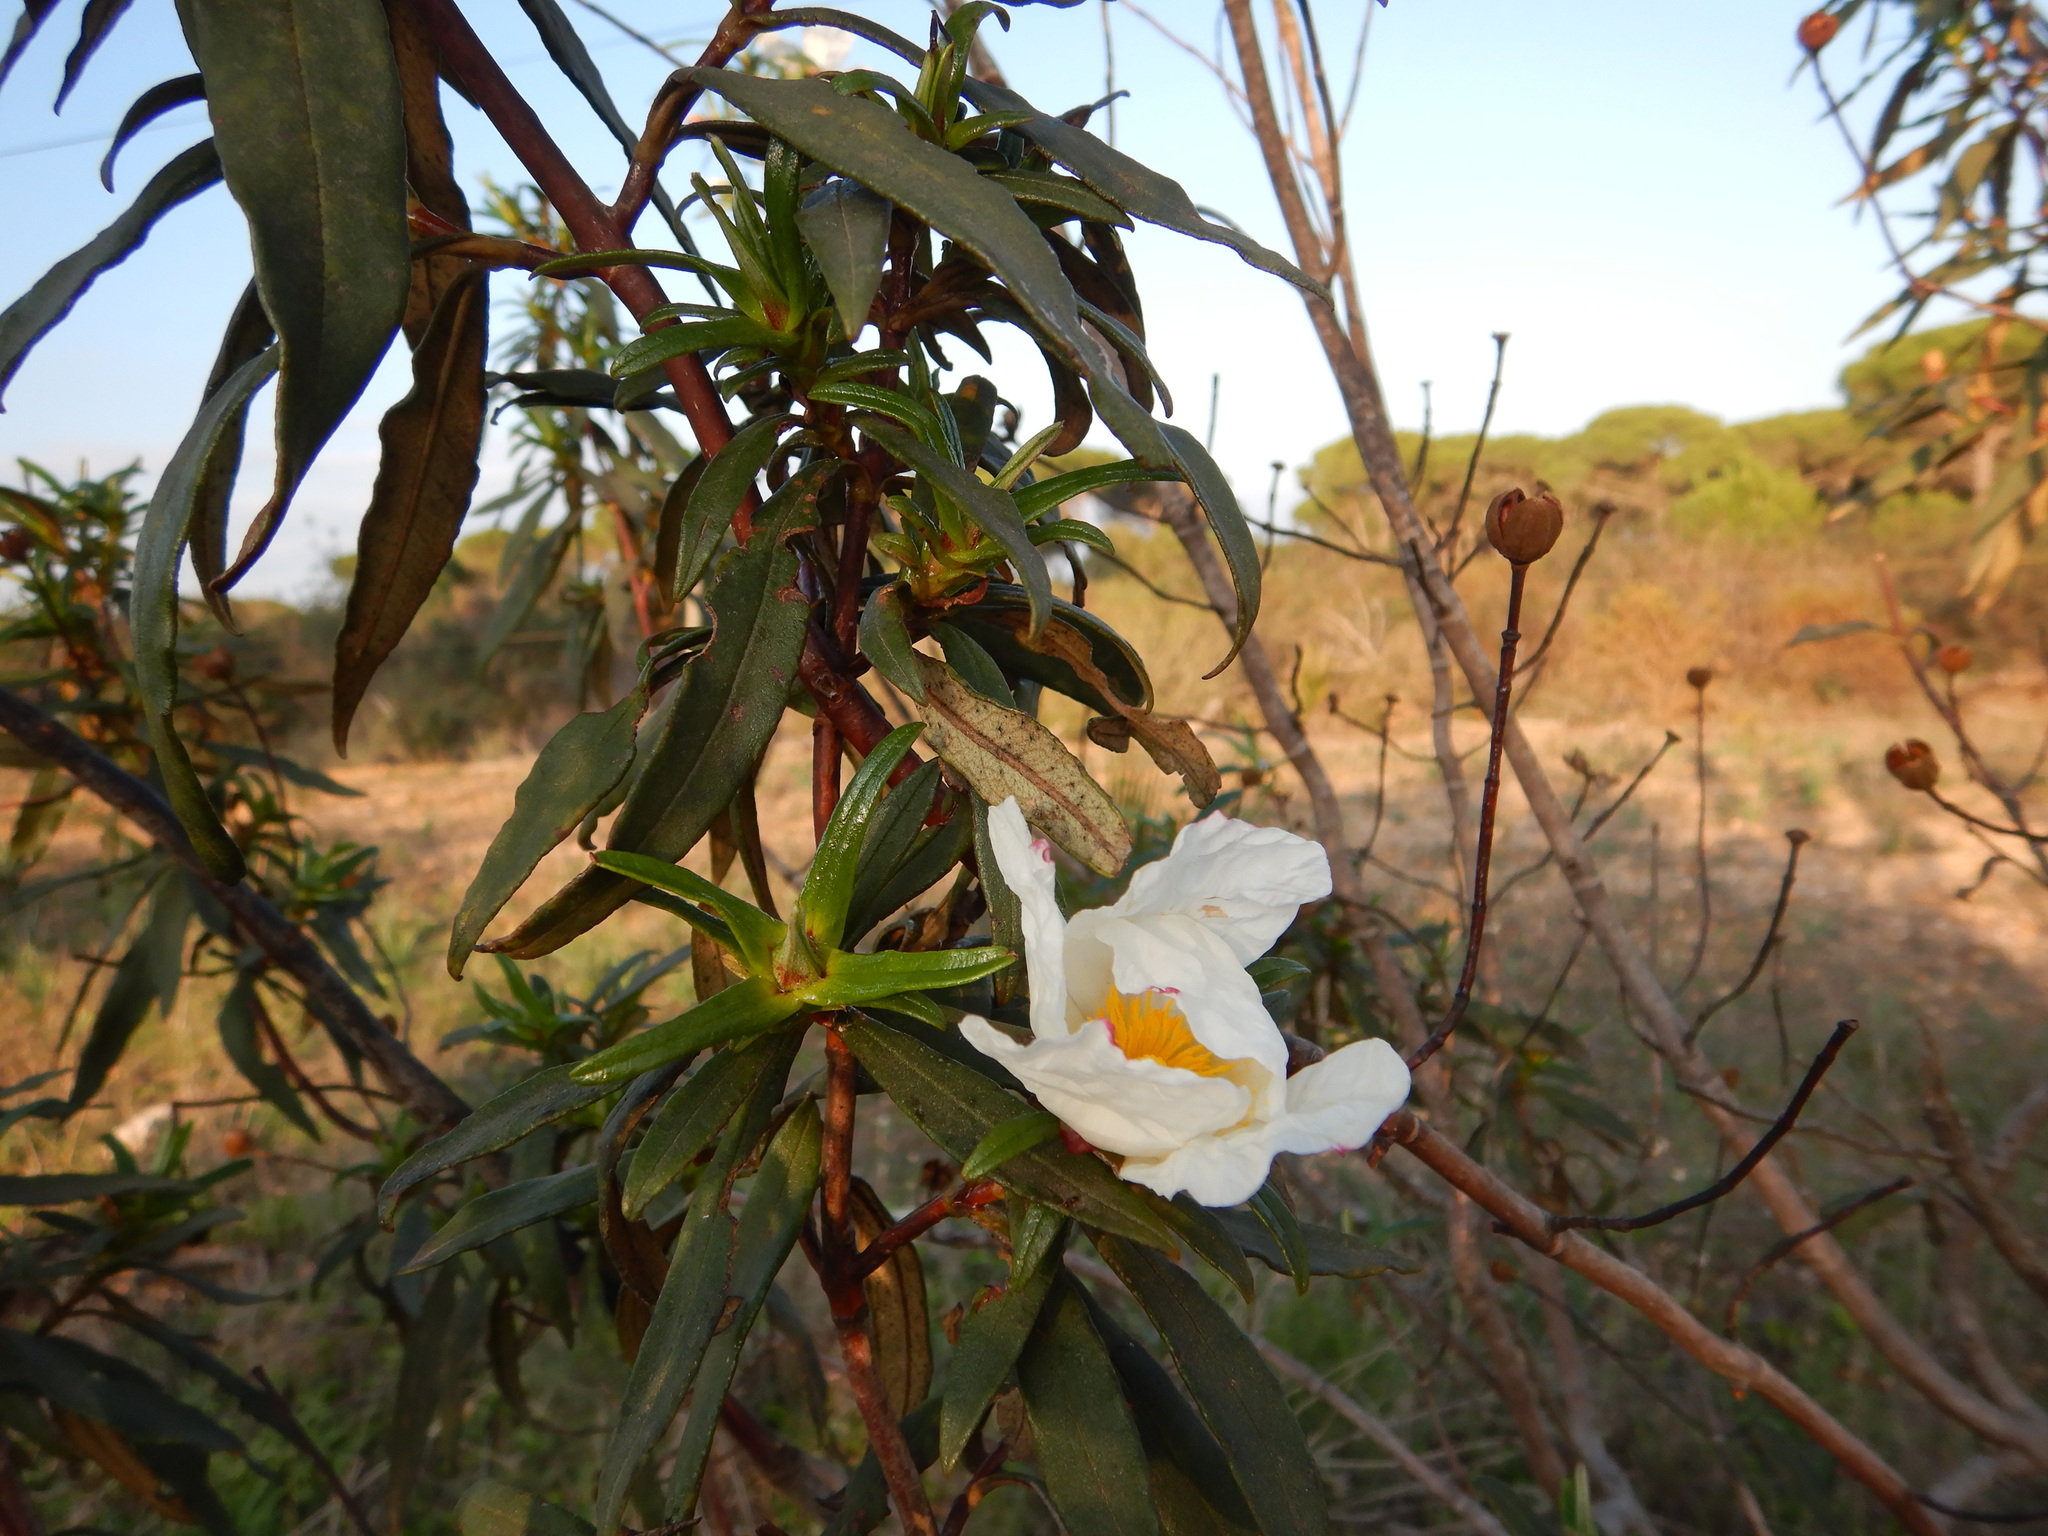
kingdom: Plantae
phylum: Tracheophyta
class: Magnoliopsida
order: Malvales
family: Cistaceae
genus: Cistus
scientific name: Cistus ladanifer
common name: Common gum cistus
